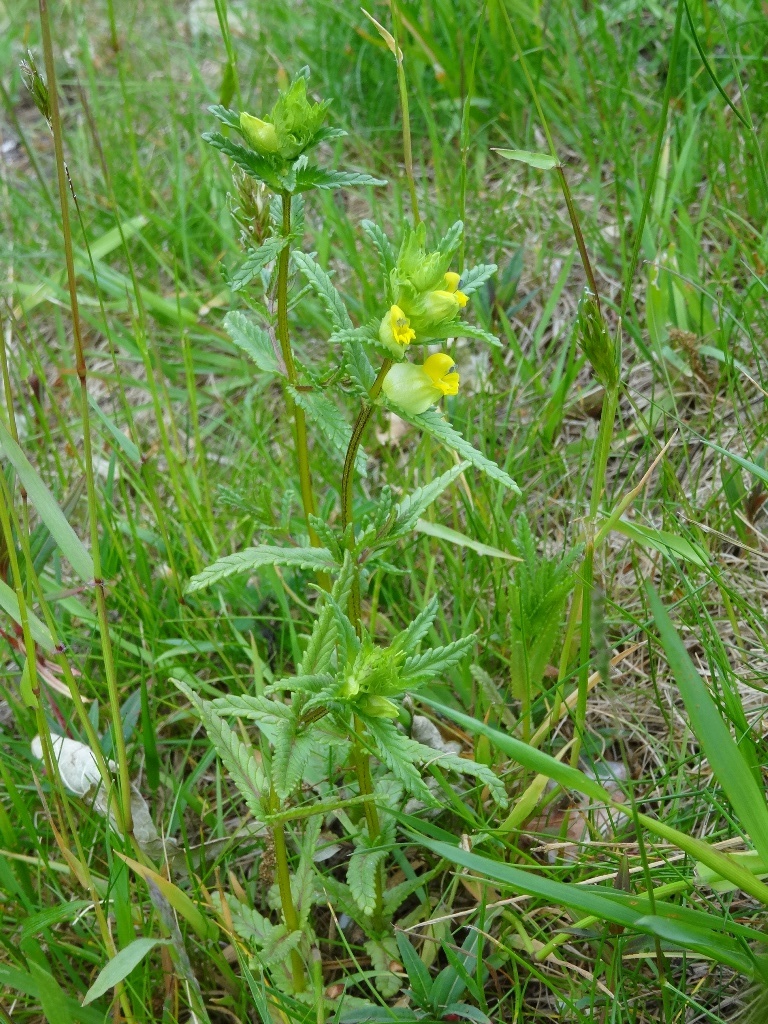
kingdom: Plantae
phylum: Tracheophyta
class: Magnoliopsida
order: Lamiales
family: Orobanchaceae
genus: Rhinanthus
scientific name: Rhinanthus minor
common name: Yellow-rattle
